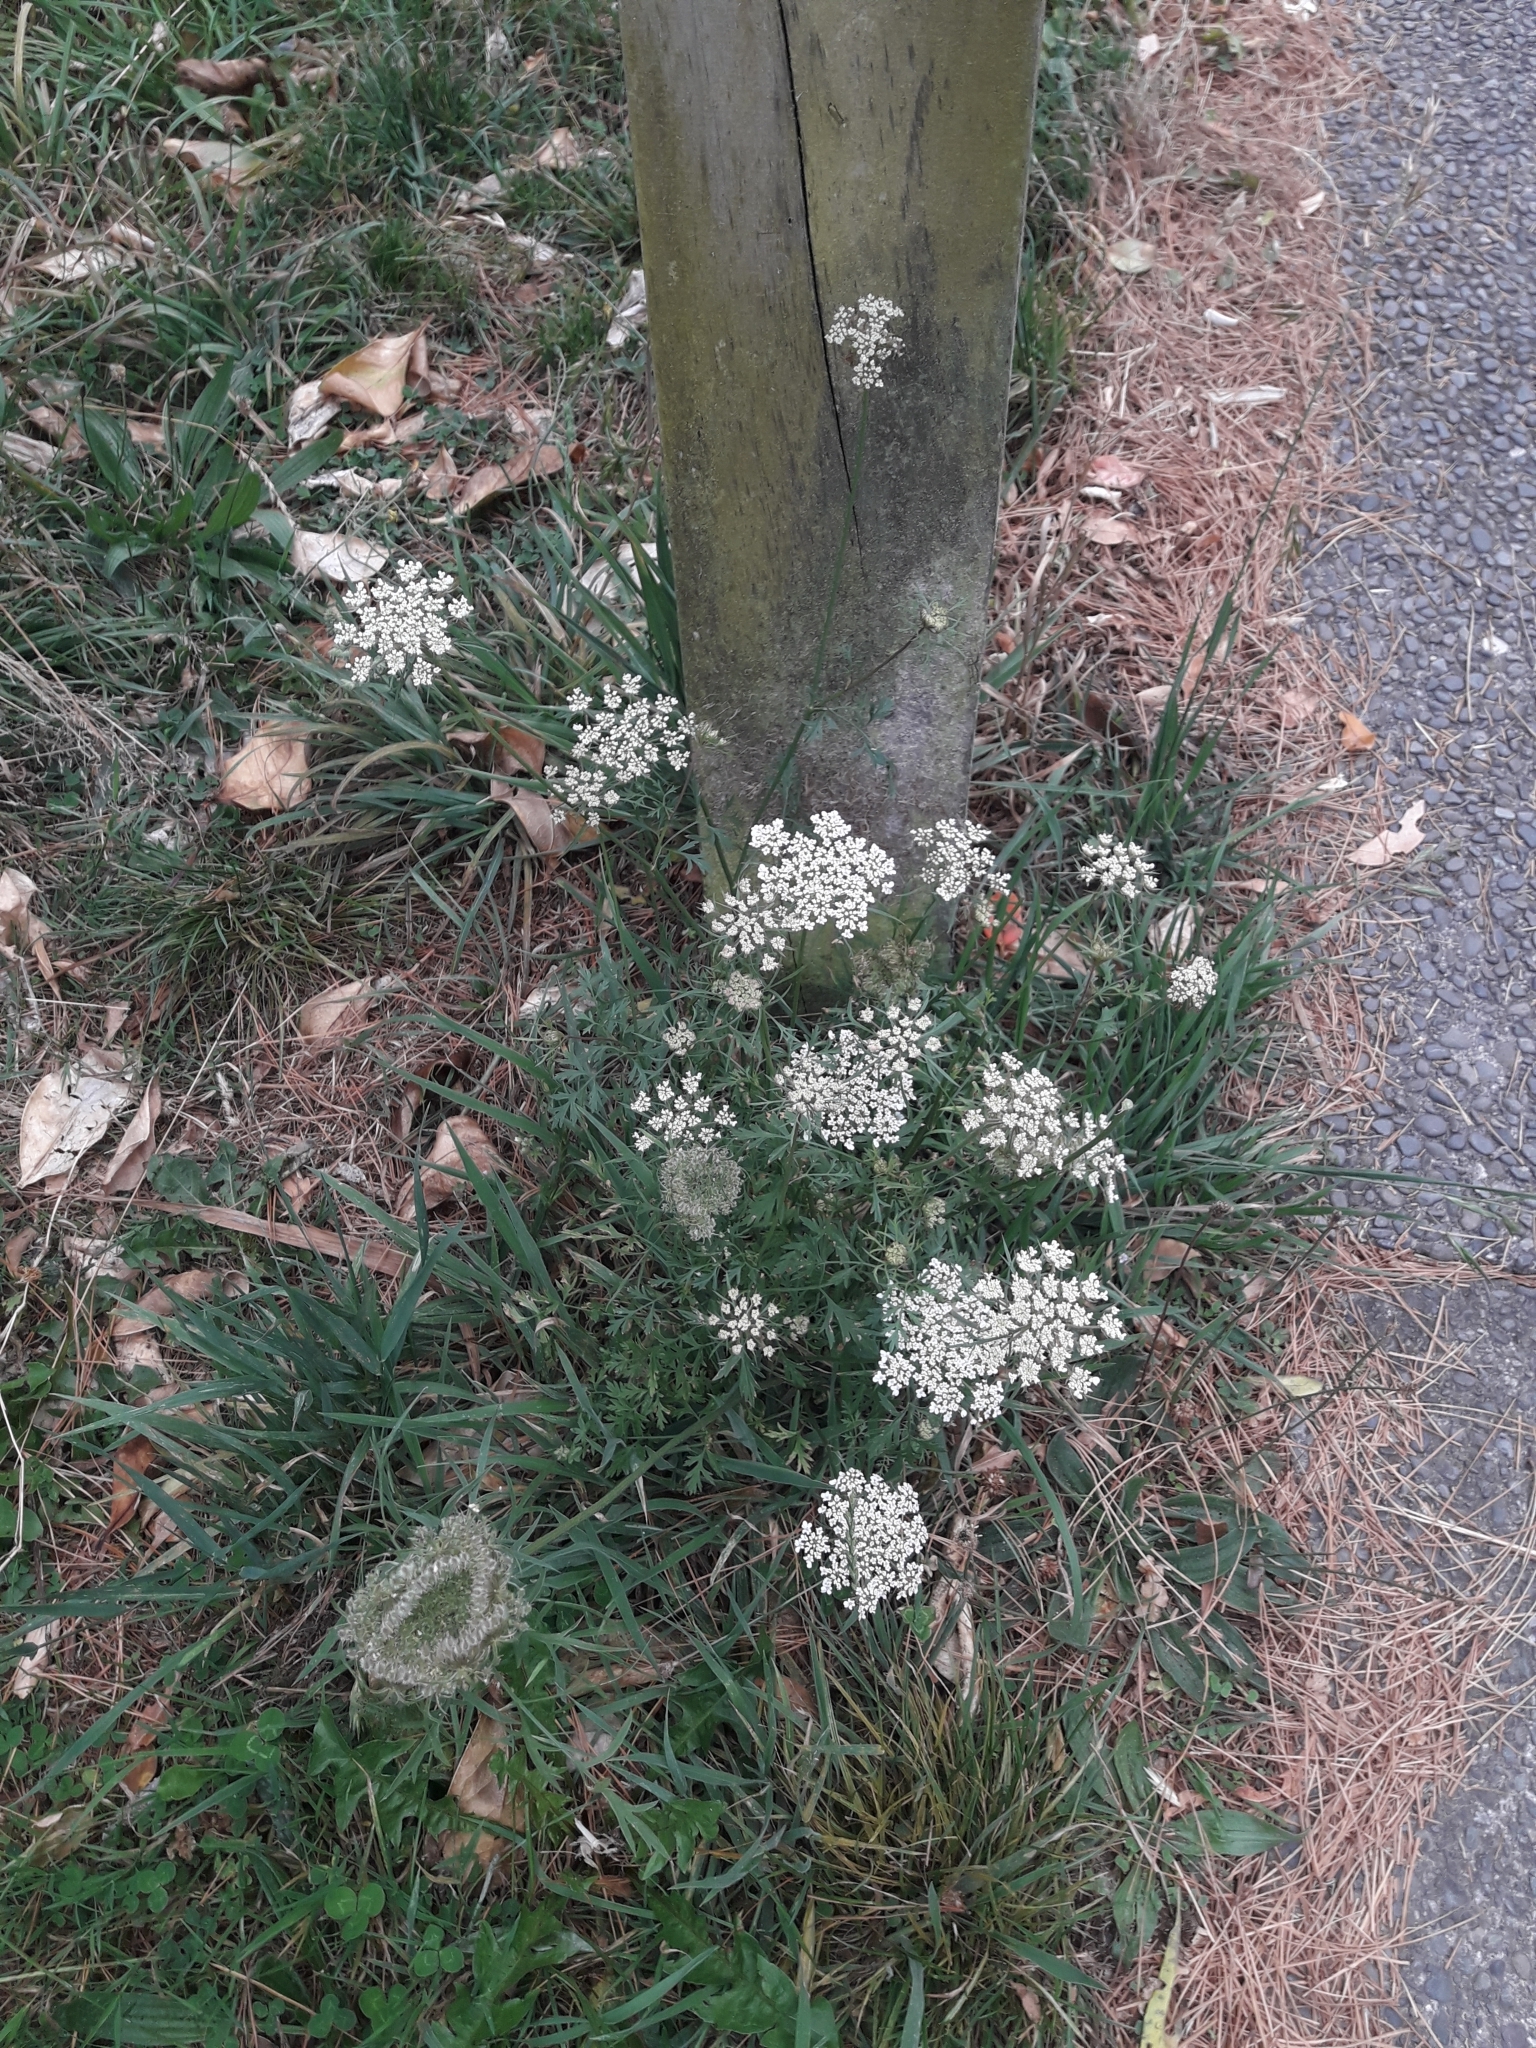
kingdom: Plantae
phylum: Tracheophyta
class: Magnoliopsida
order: Apiales
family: Apiaceae
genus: Daucus
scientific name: Daucus carota
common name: Wild carrot
